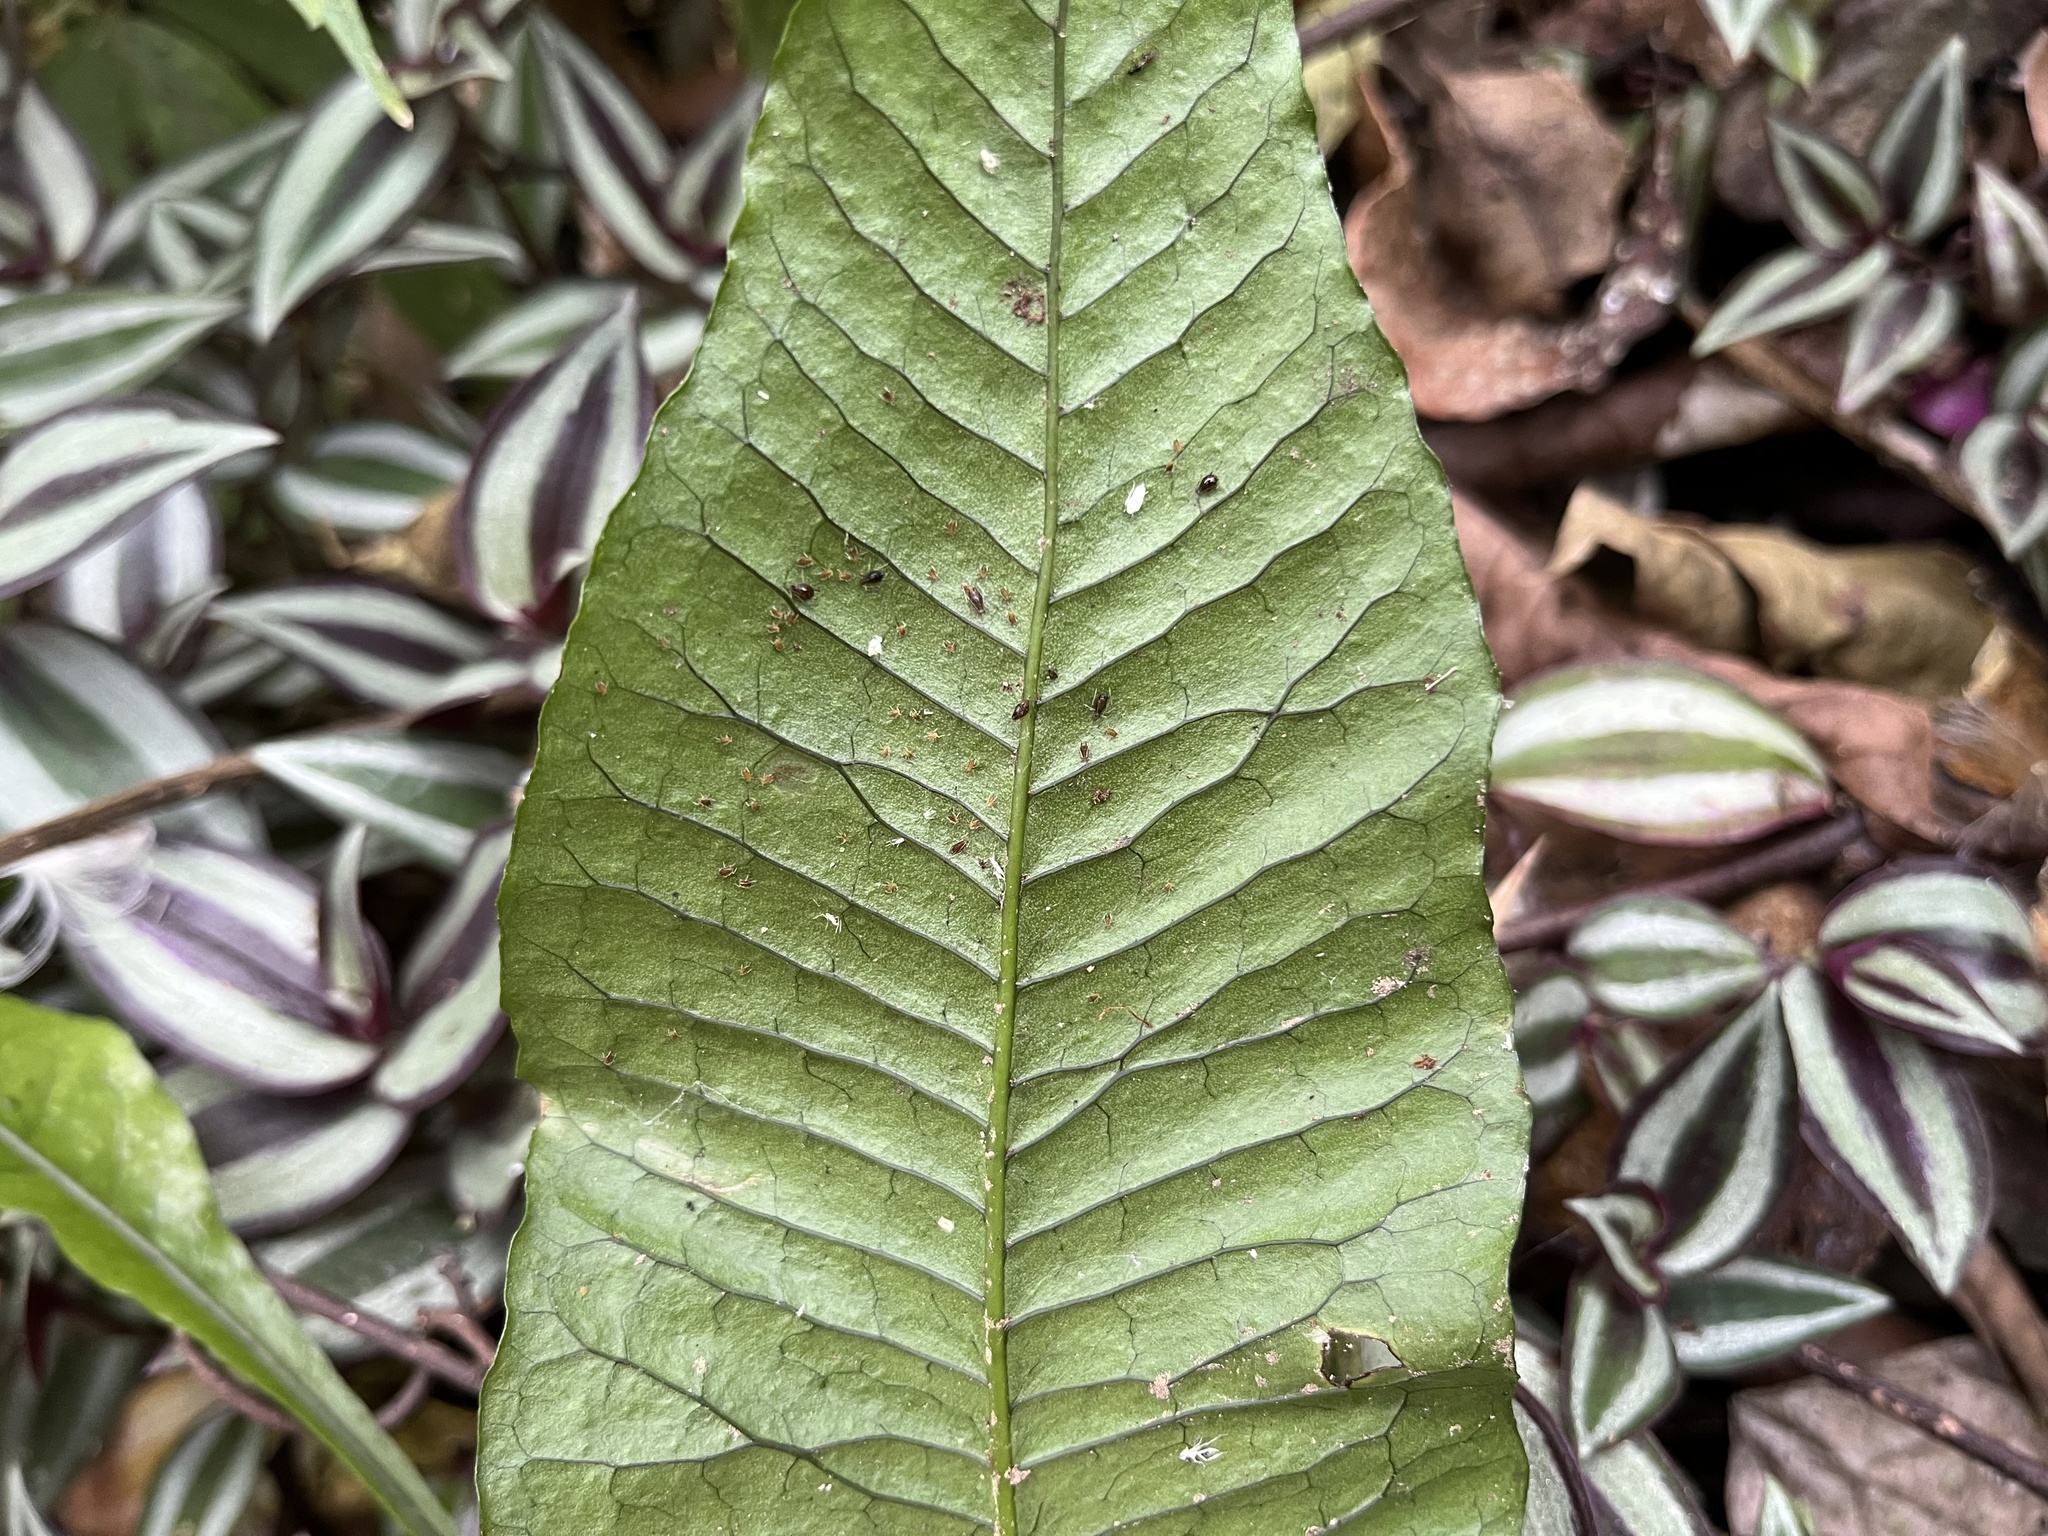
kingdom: Plantae
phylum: Tracheophyta
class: Polypodiopsida
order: Polypodiales
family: Polypodiaceae
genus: Leptochilus
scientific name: Leptochilus wrightii
